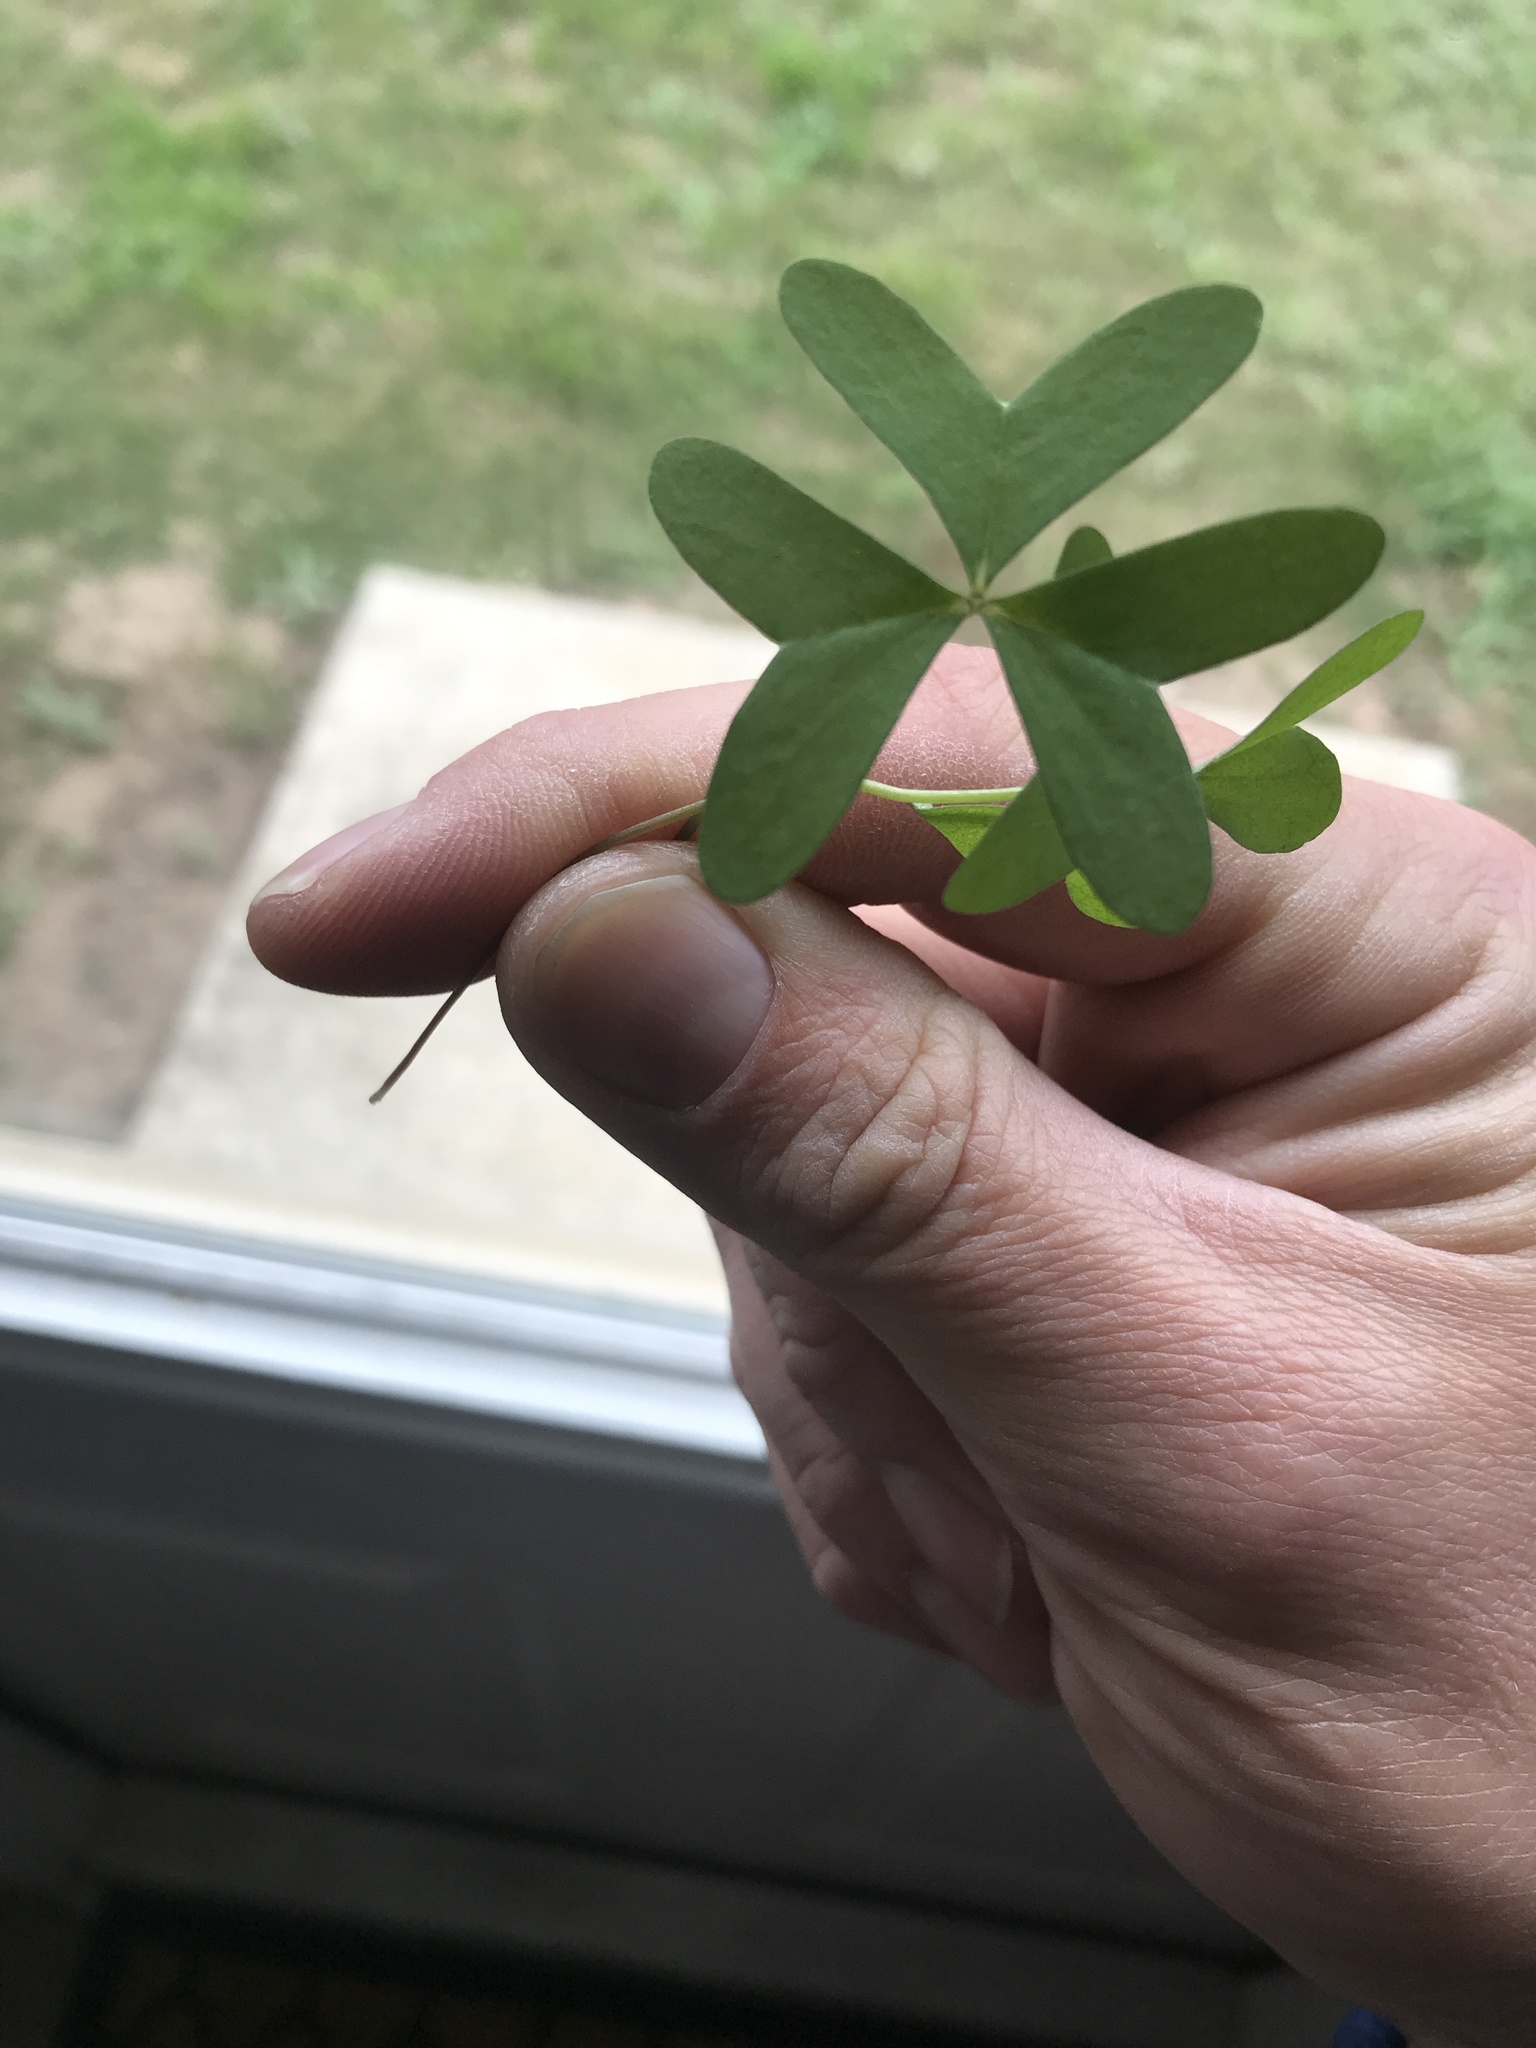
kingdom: Plantae
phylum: Tracheophyta
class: Magnoliopsida
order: Oxalidales
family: Oxalidaceae
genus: Oxalis
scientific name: Oxalis drummondii
